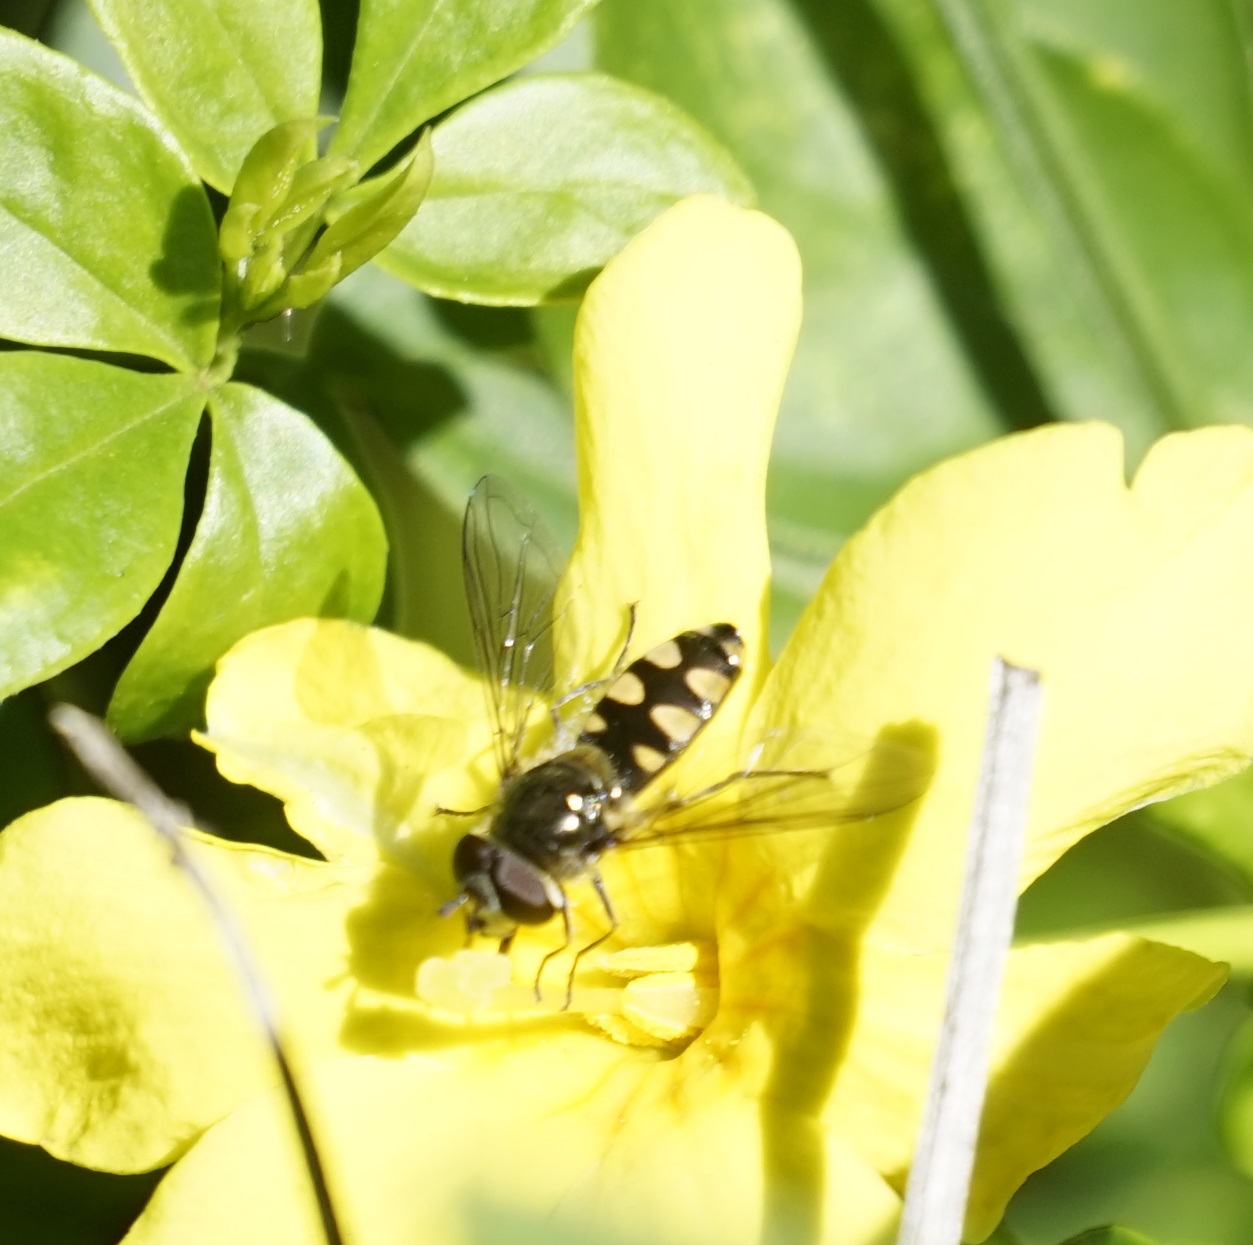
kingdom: Animalia
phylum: Arthropoda
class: Insecta
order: Diptera
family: Syrphidae
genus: Melangyna
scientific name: Melangyna viridiceps
